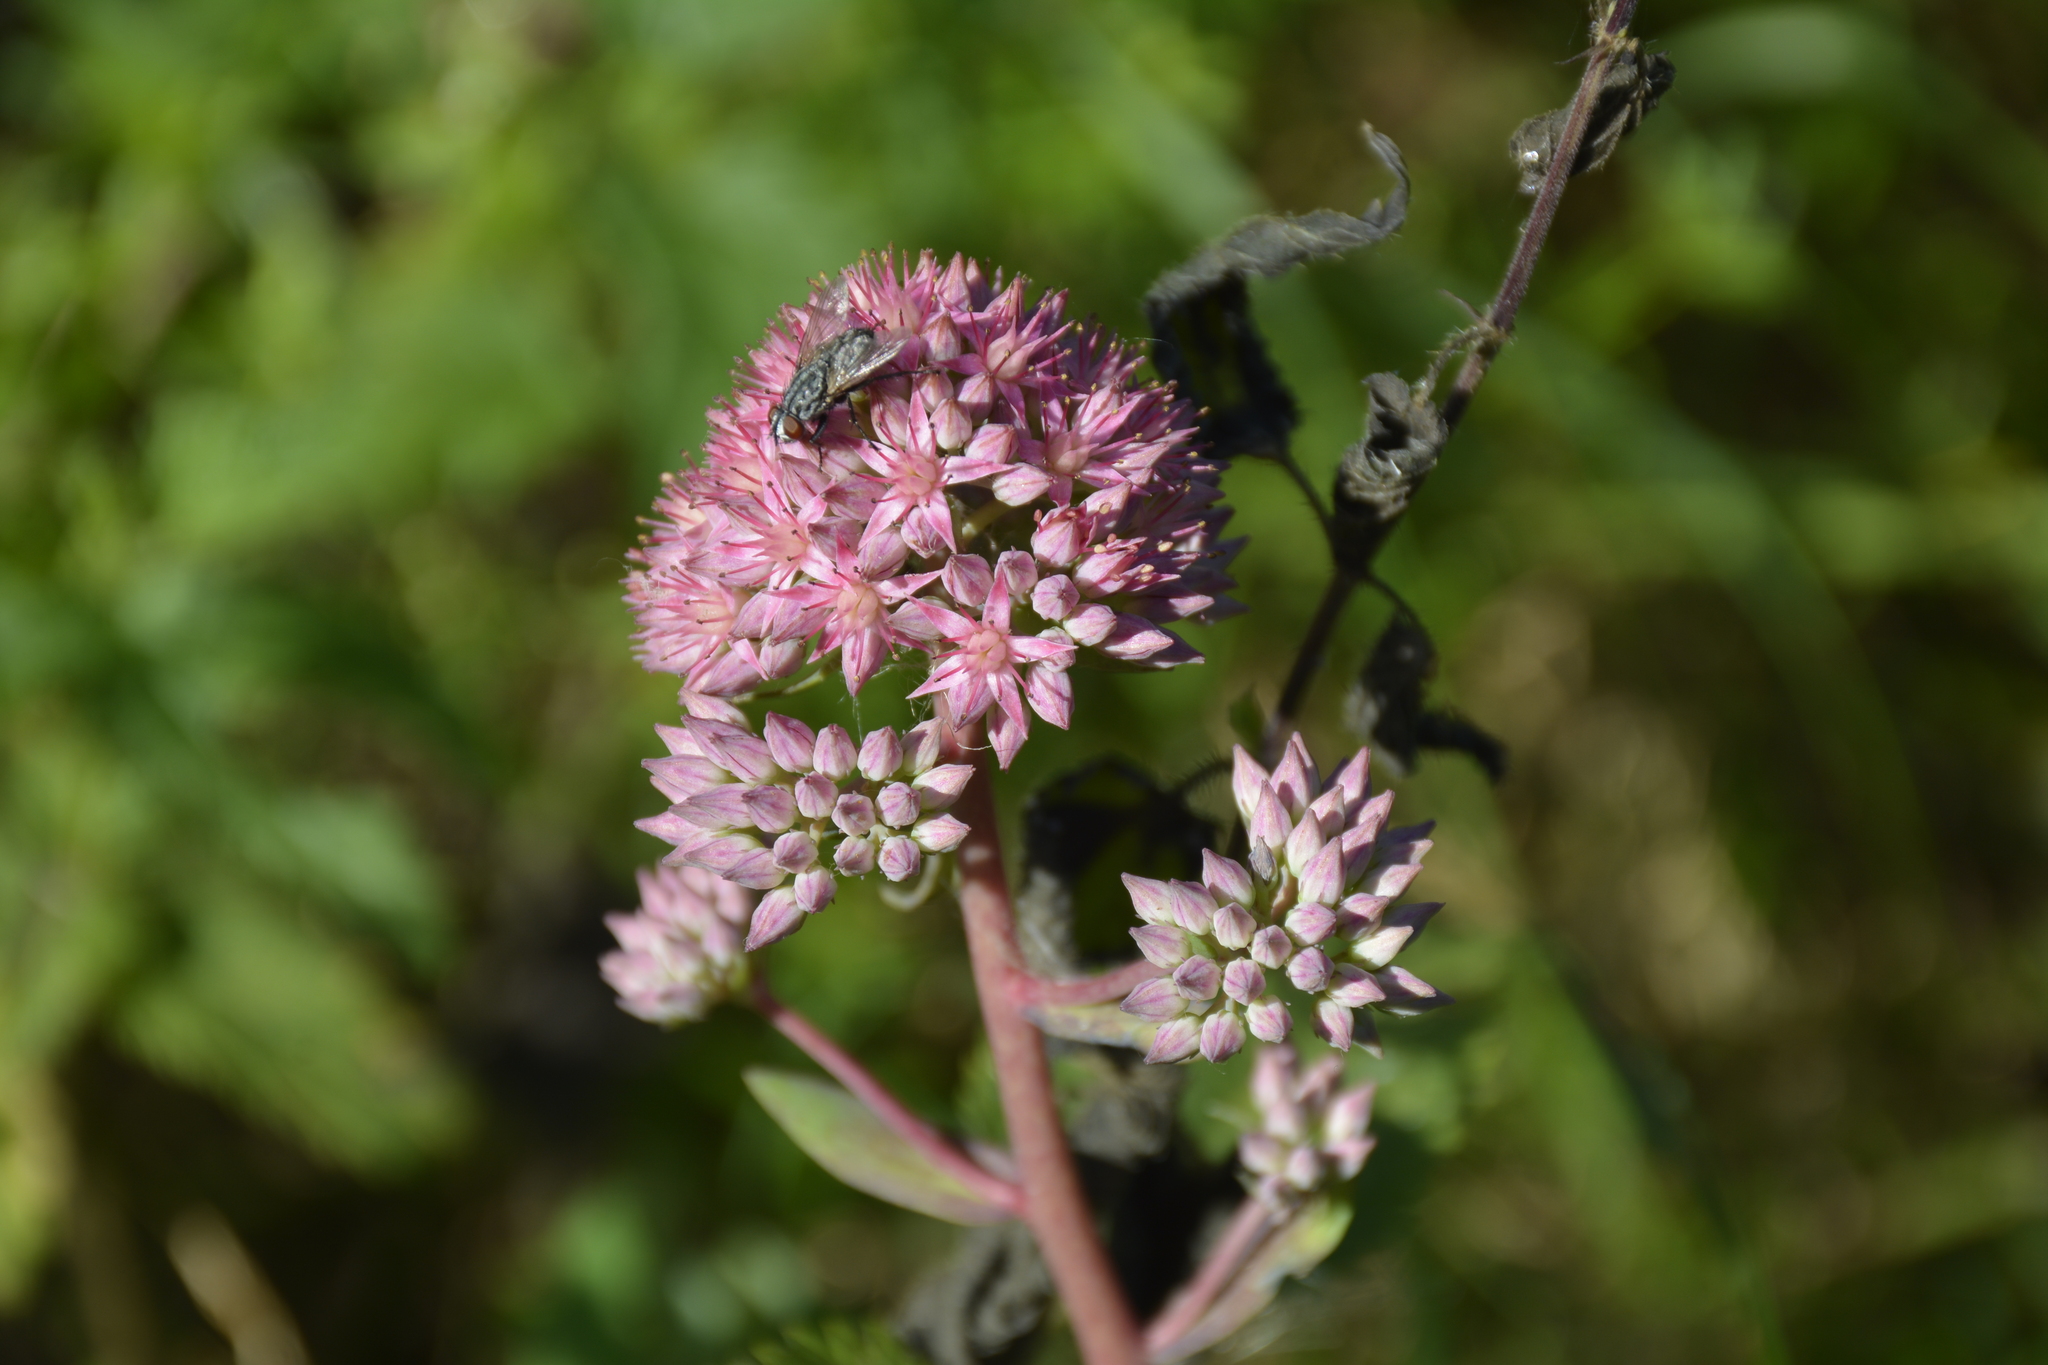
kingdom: Plantae
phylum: Tracheophyta
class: Magnoliopsida
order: Saxifragales
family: Crassulaceae
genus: Hylotelephium
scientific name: Hylotelephium telephium
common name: Live-forever
